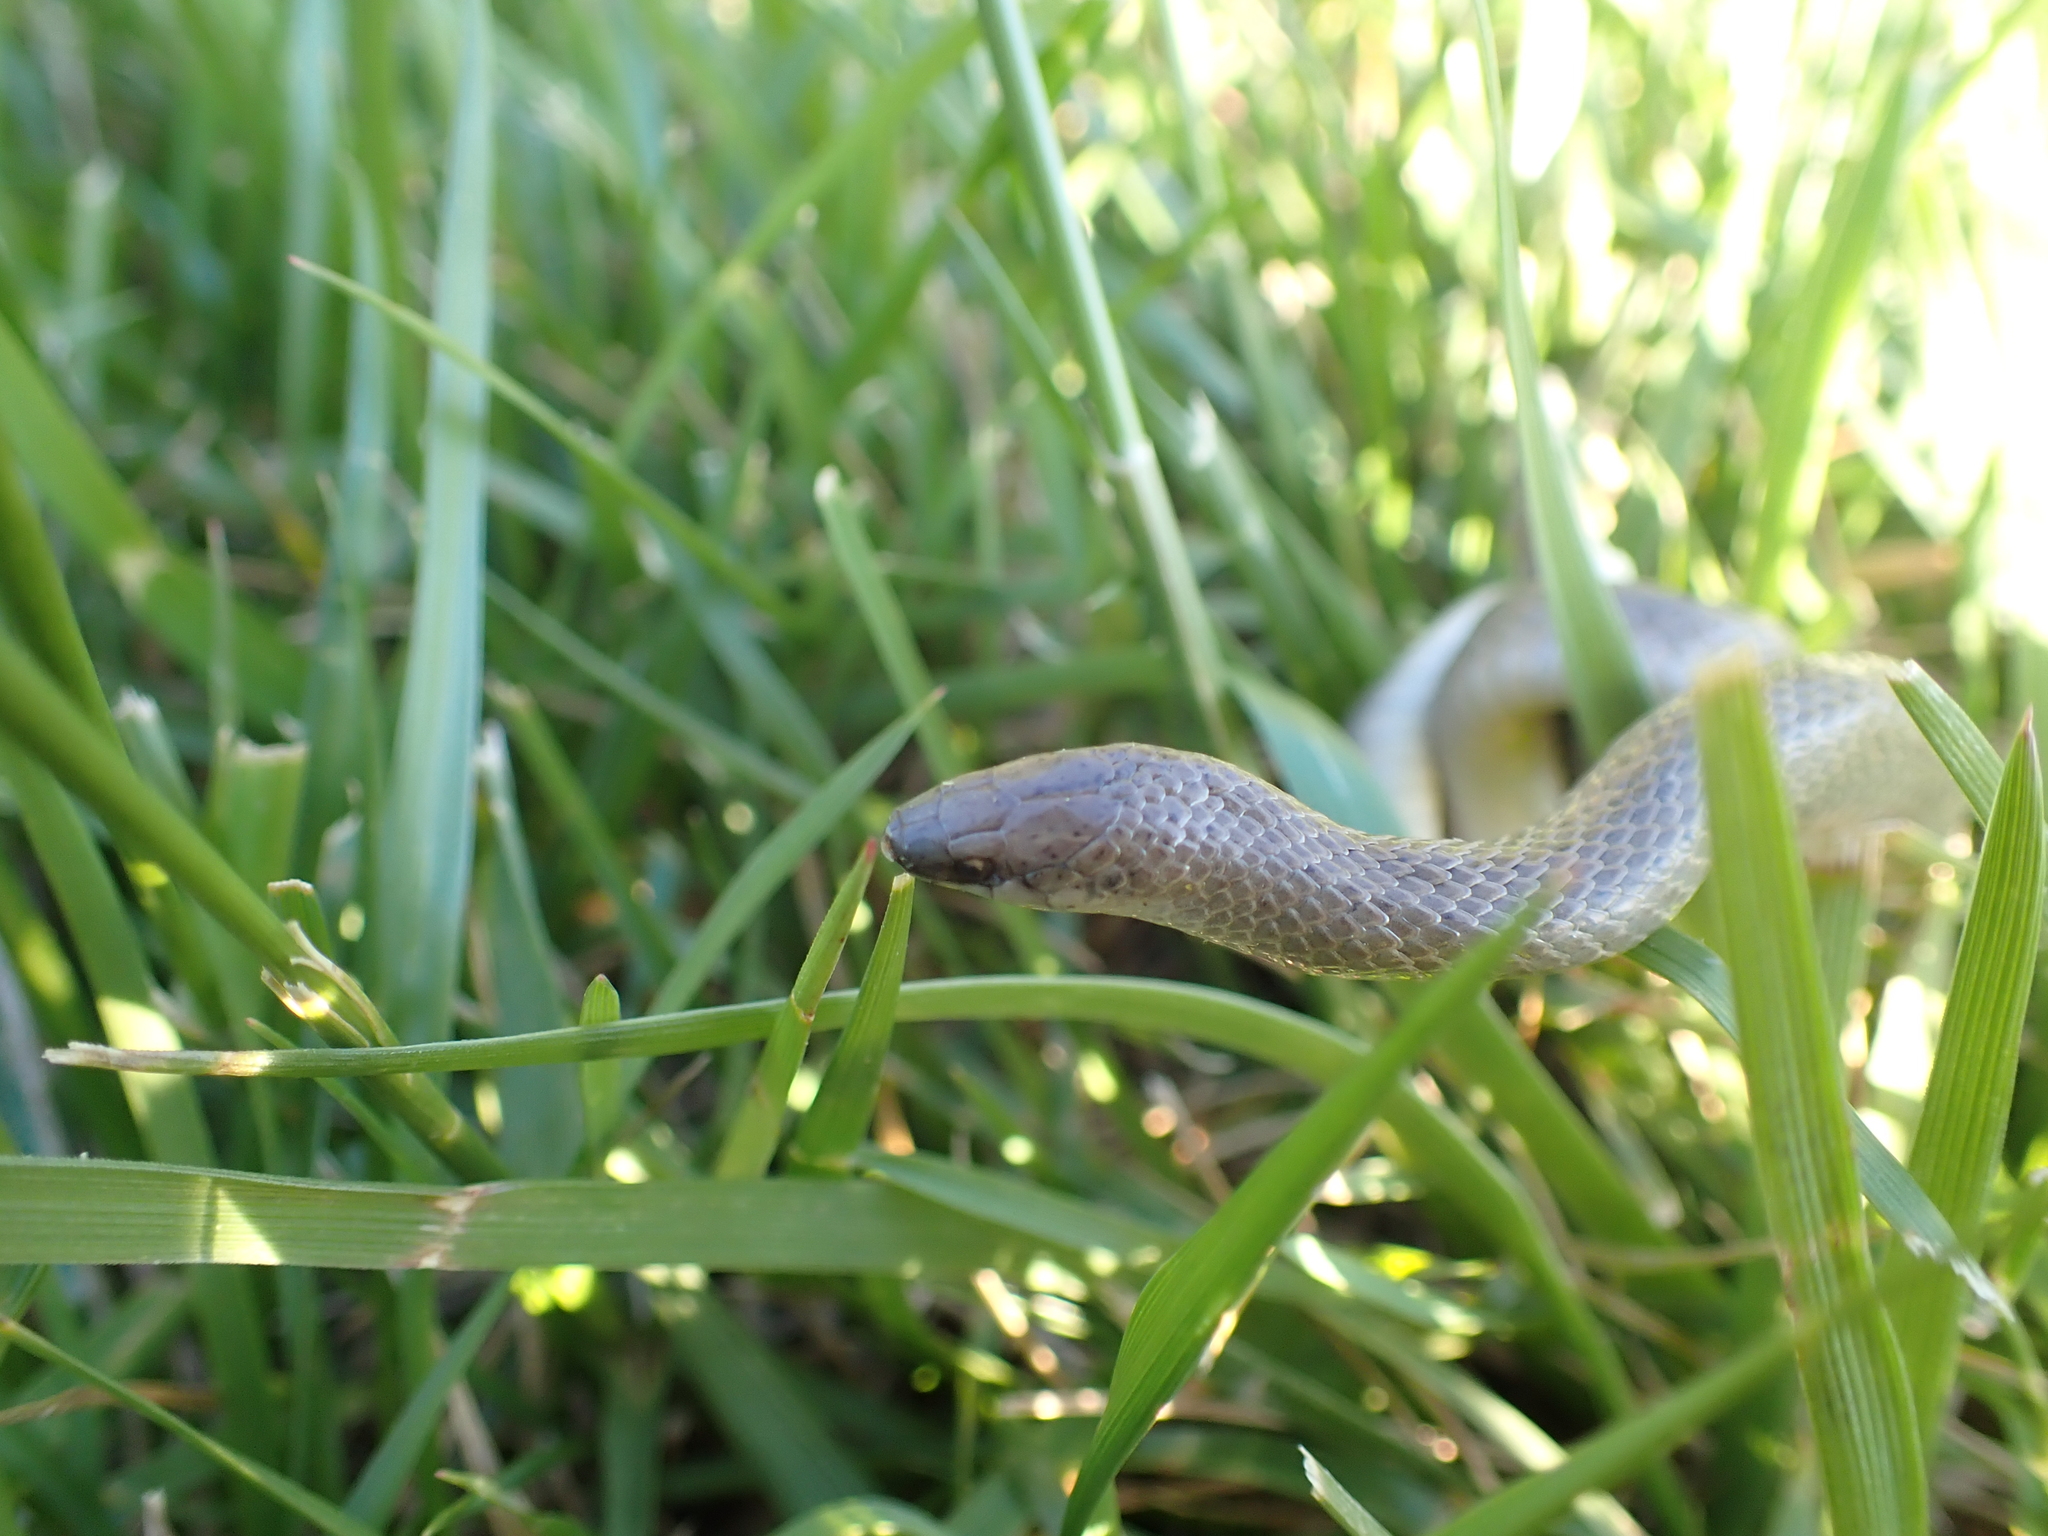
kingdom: Animalia
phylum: Chordata
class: Squamata
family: Colubridae
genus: Virginia
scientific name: Virginia valeriae
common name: Smooth earth snake
